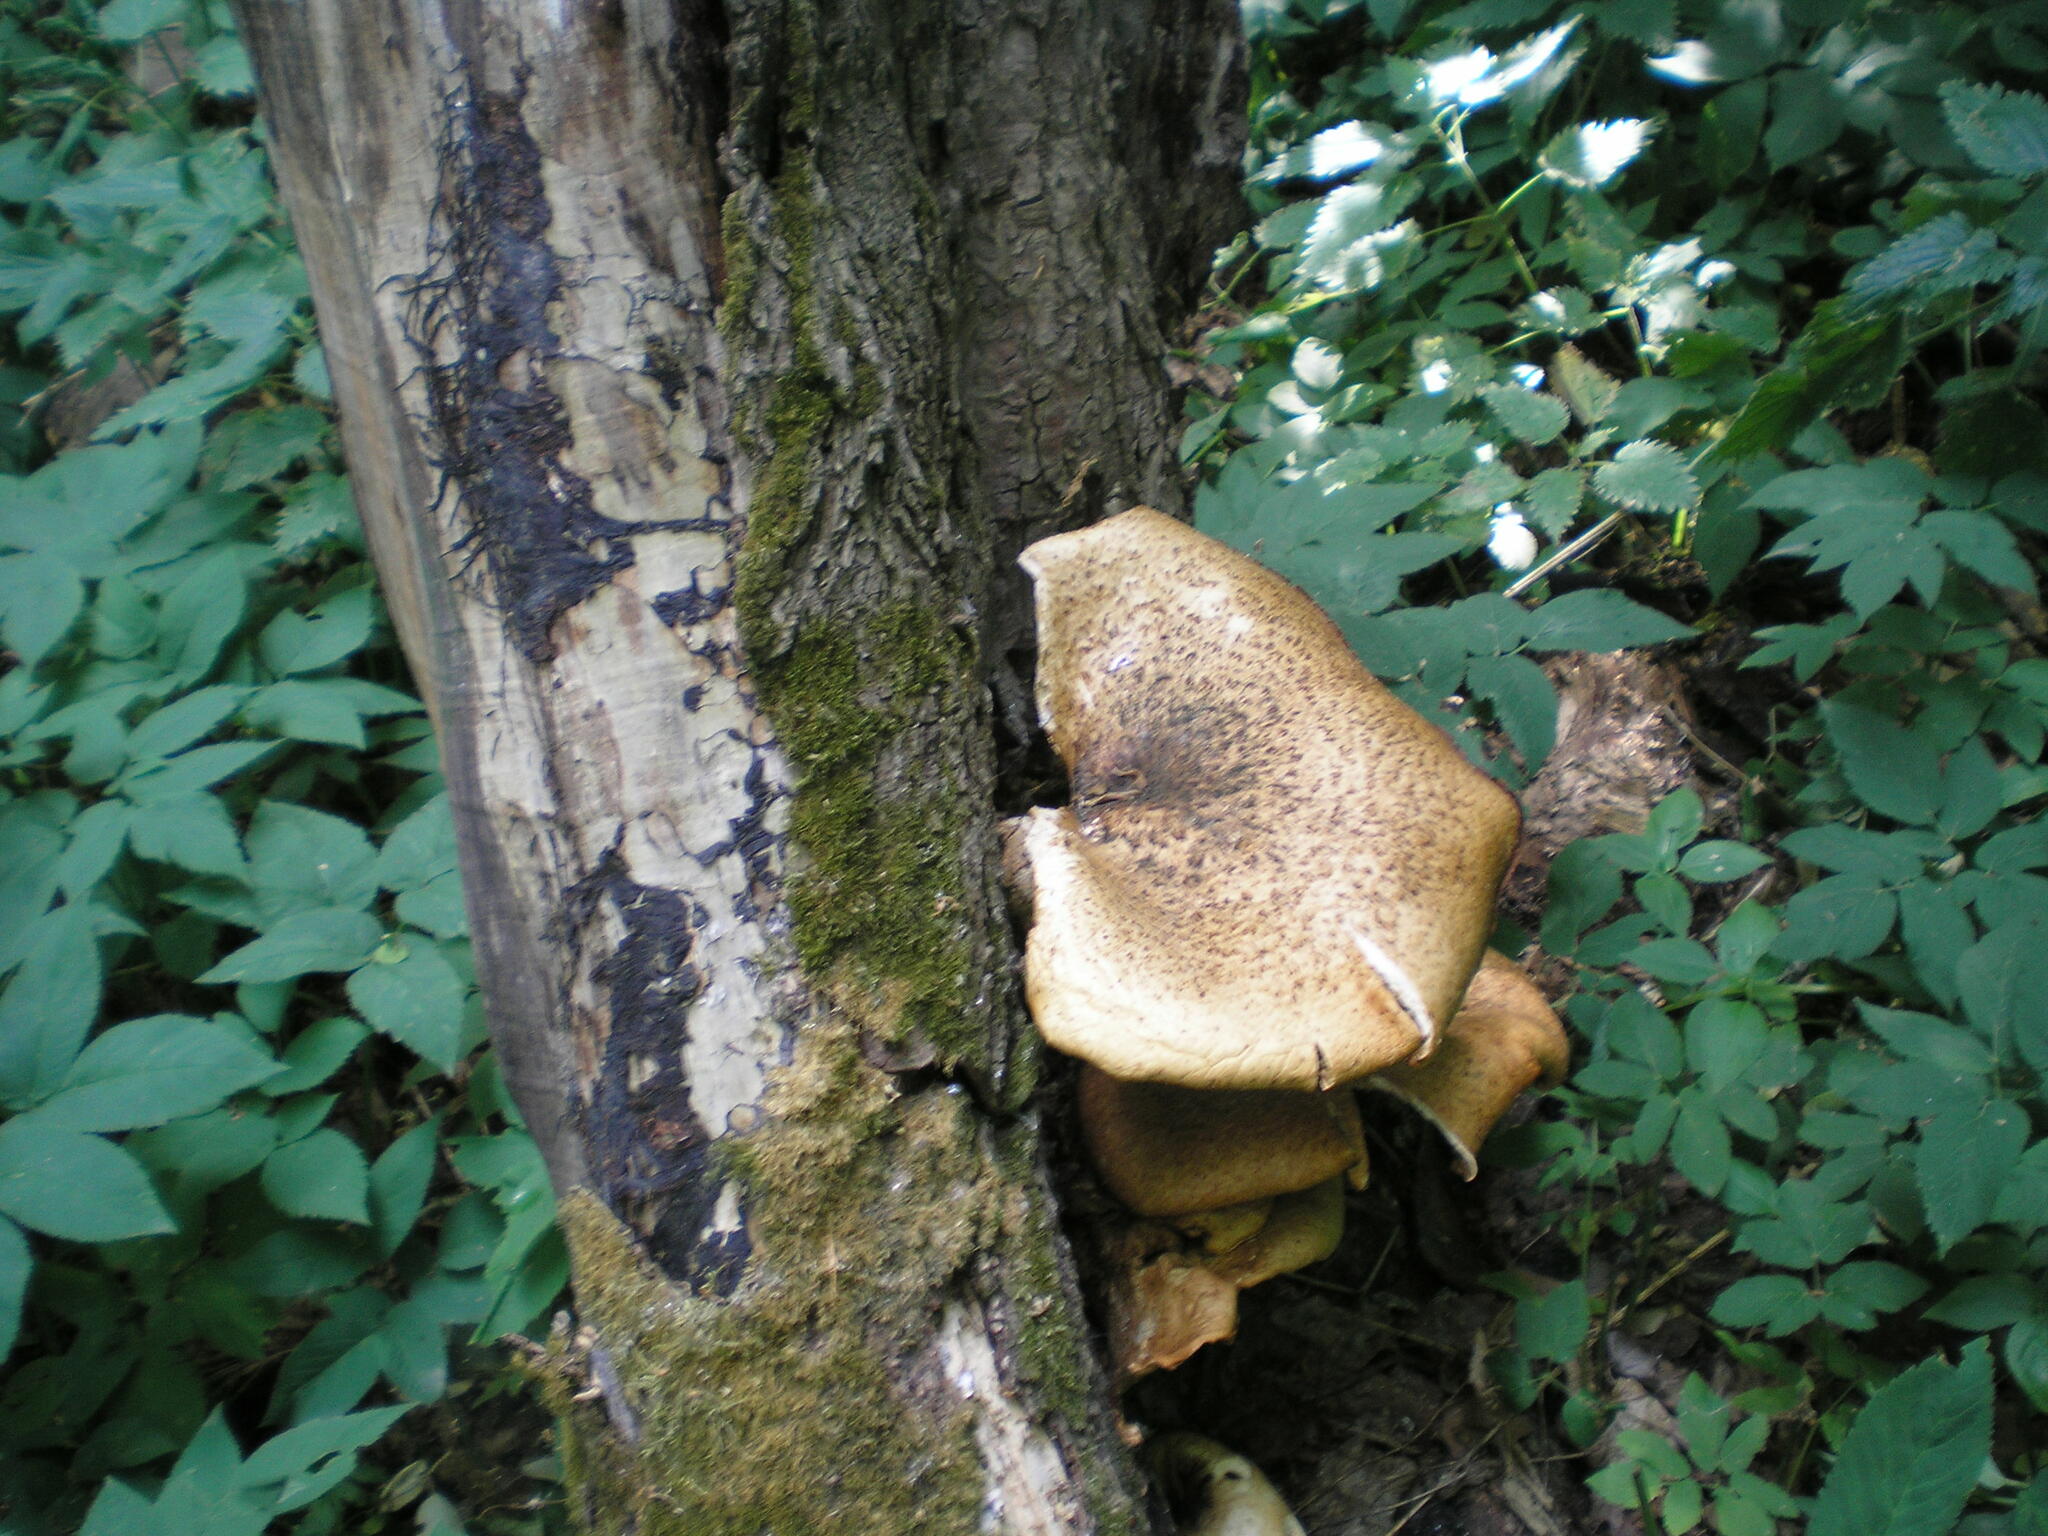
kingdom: Fungi
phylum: Basidiomycota
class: Agaricomycetes
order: Polyporales
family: Polyporaceae
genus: Cerioporus
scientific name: Cerioporus squamosus
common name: Dryad's saddle
